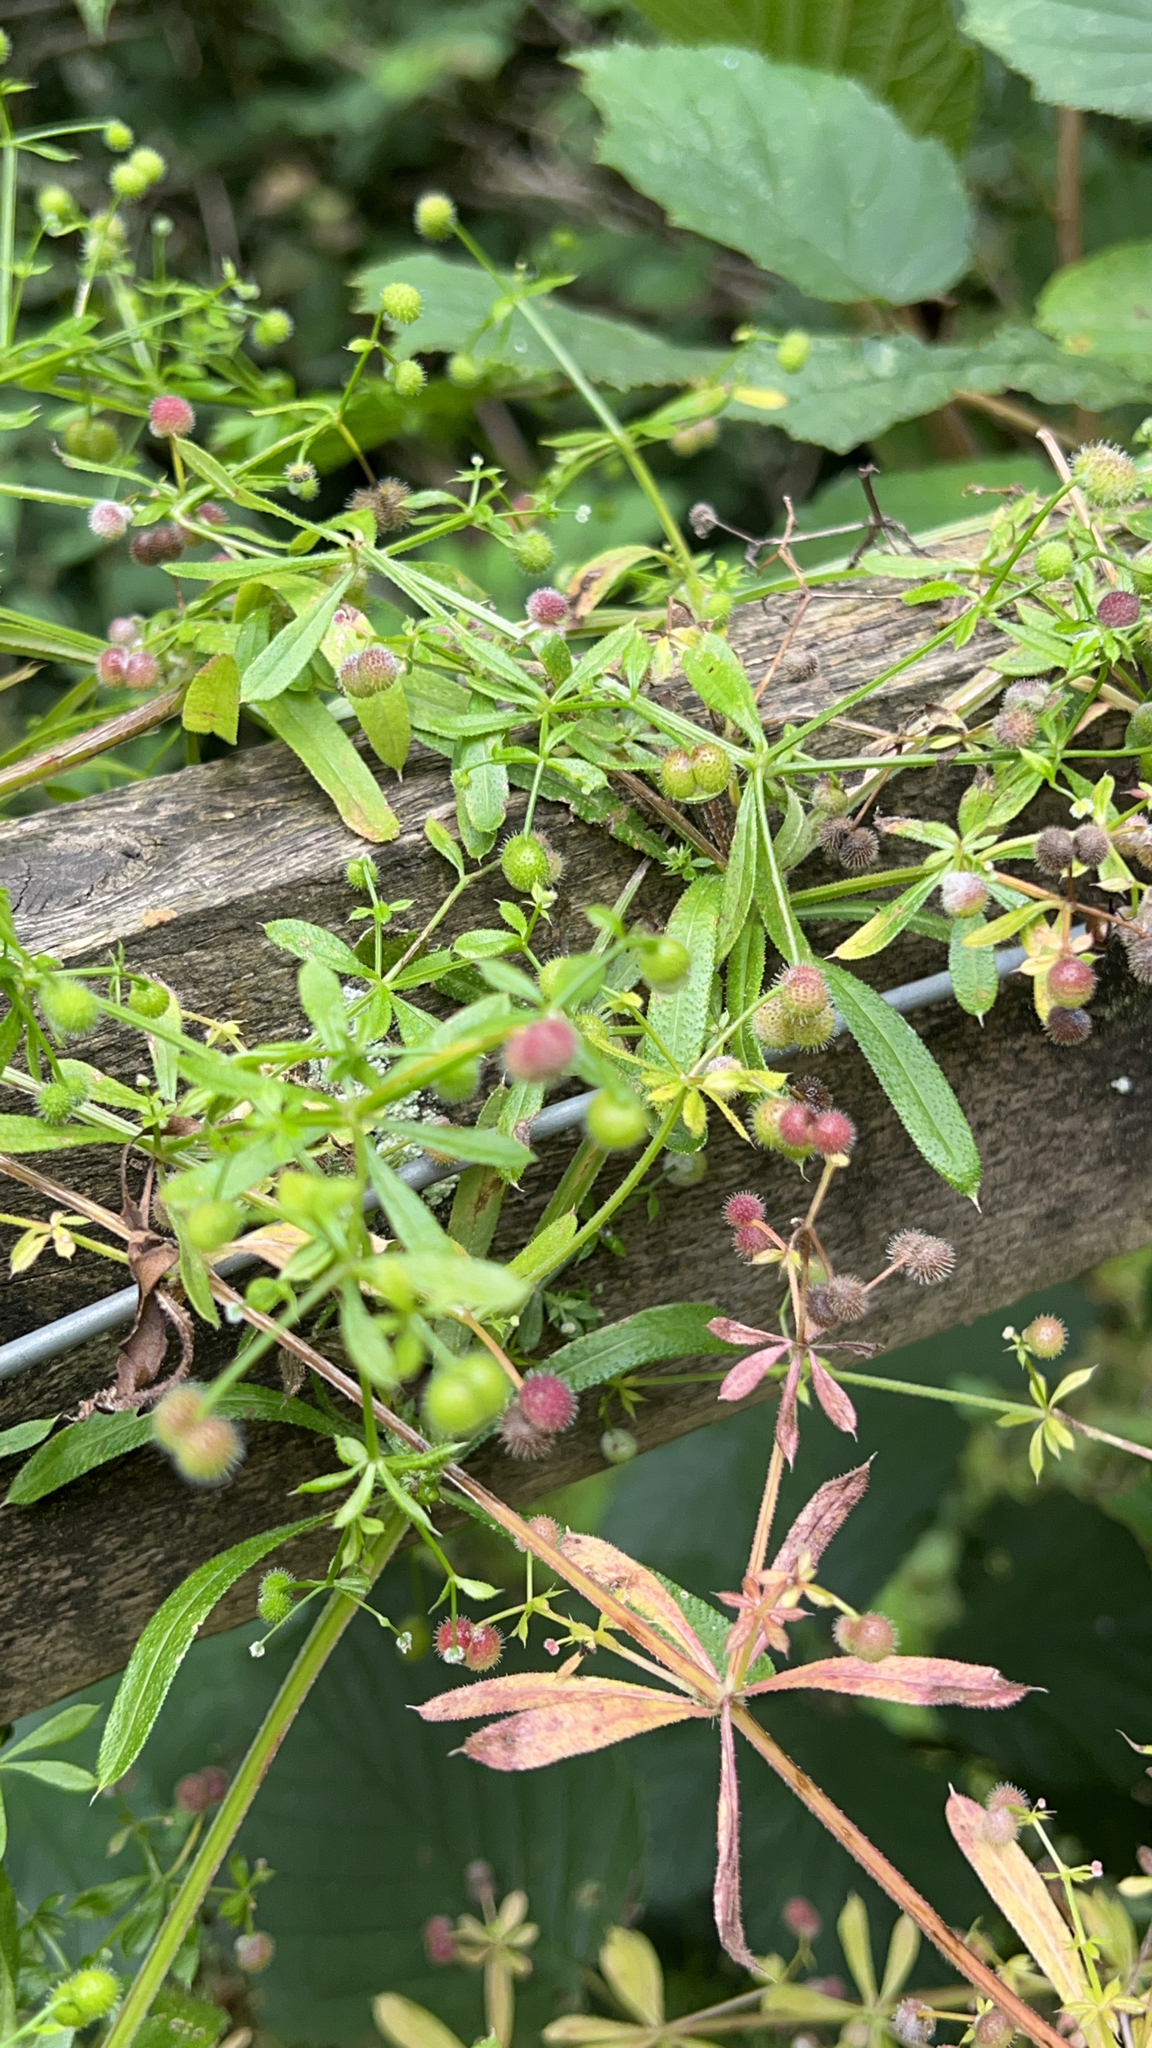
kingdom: Plantae
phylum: Tracheophyta
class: Magnoliopsida
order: Gentianales
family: Rubiaceae
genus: Galium
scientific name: Galium aparine
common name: Cleavers
